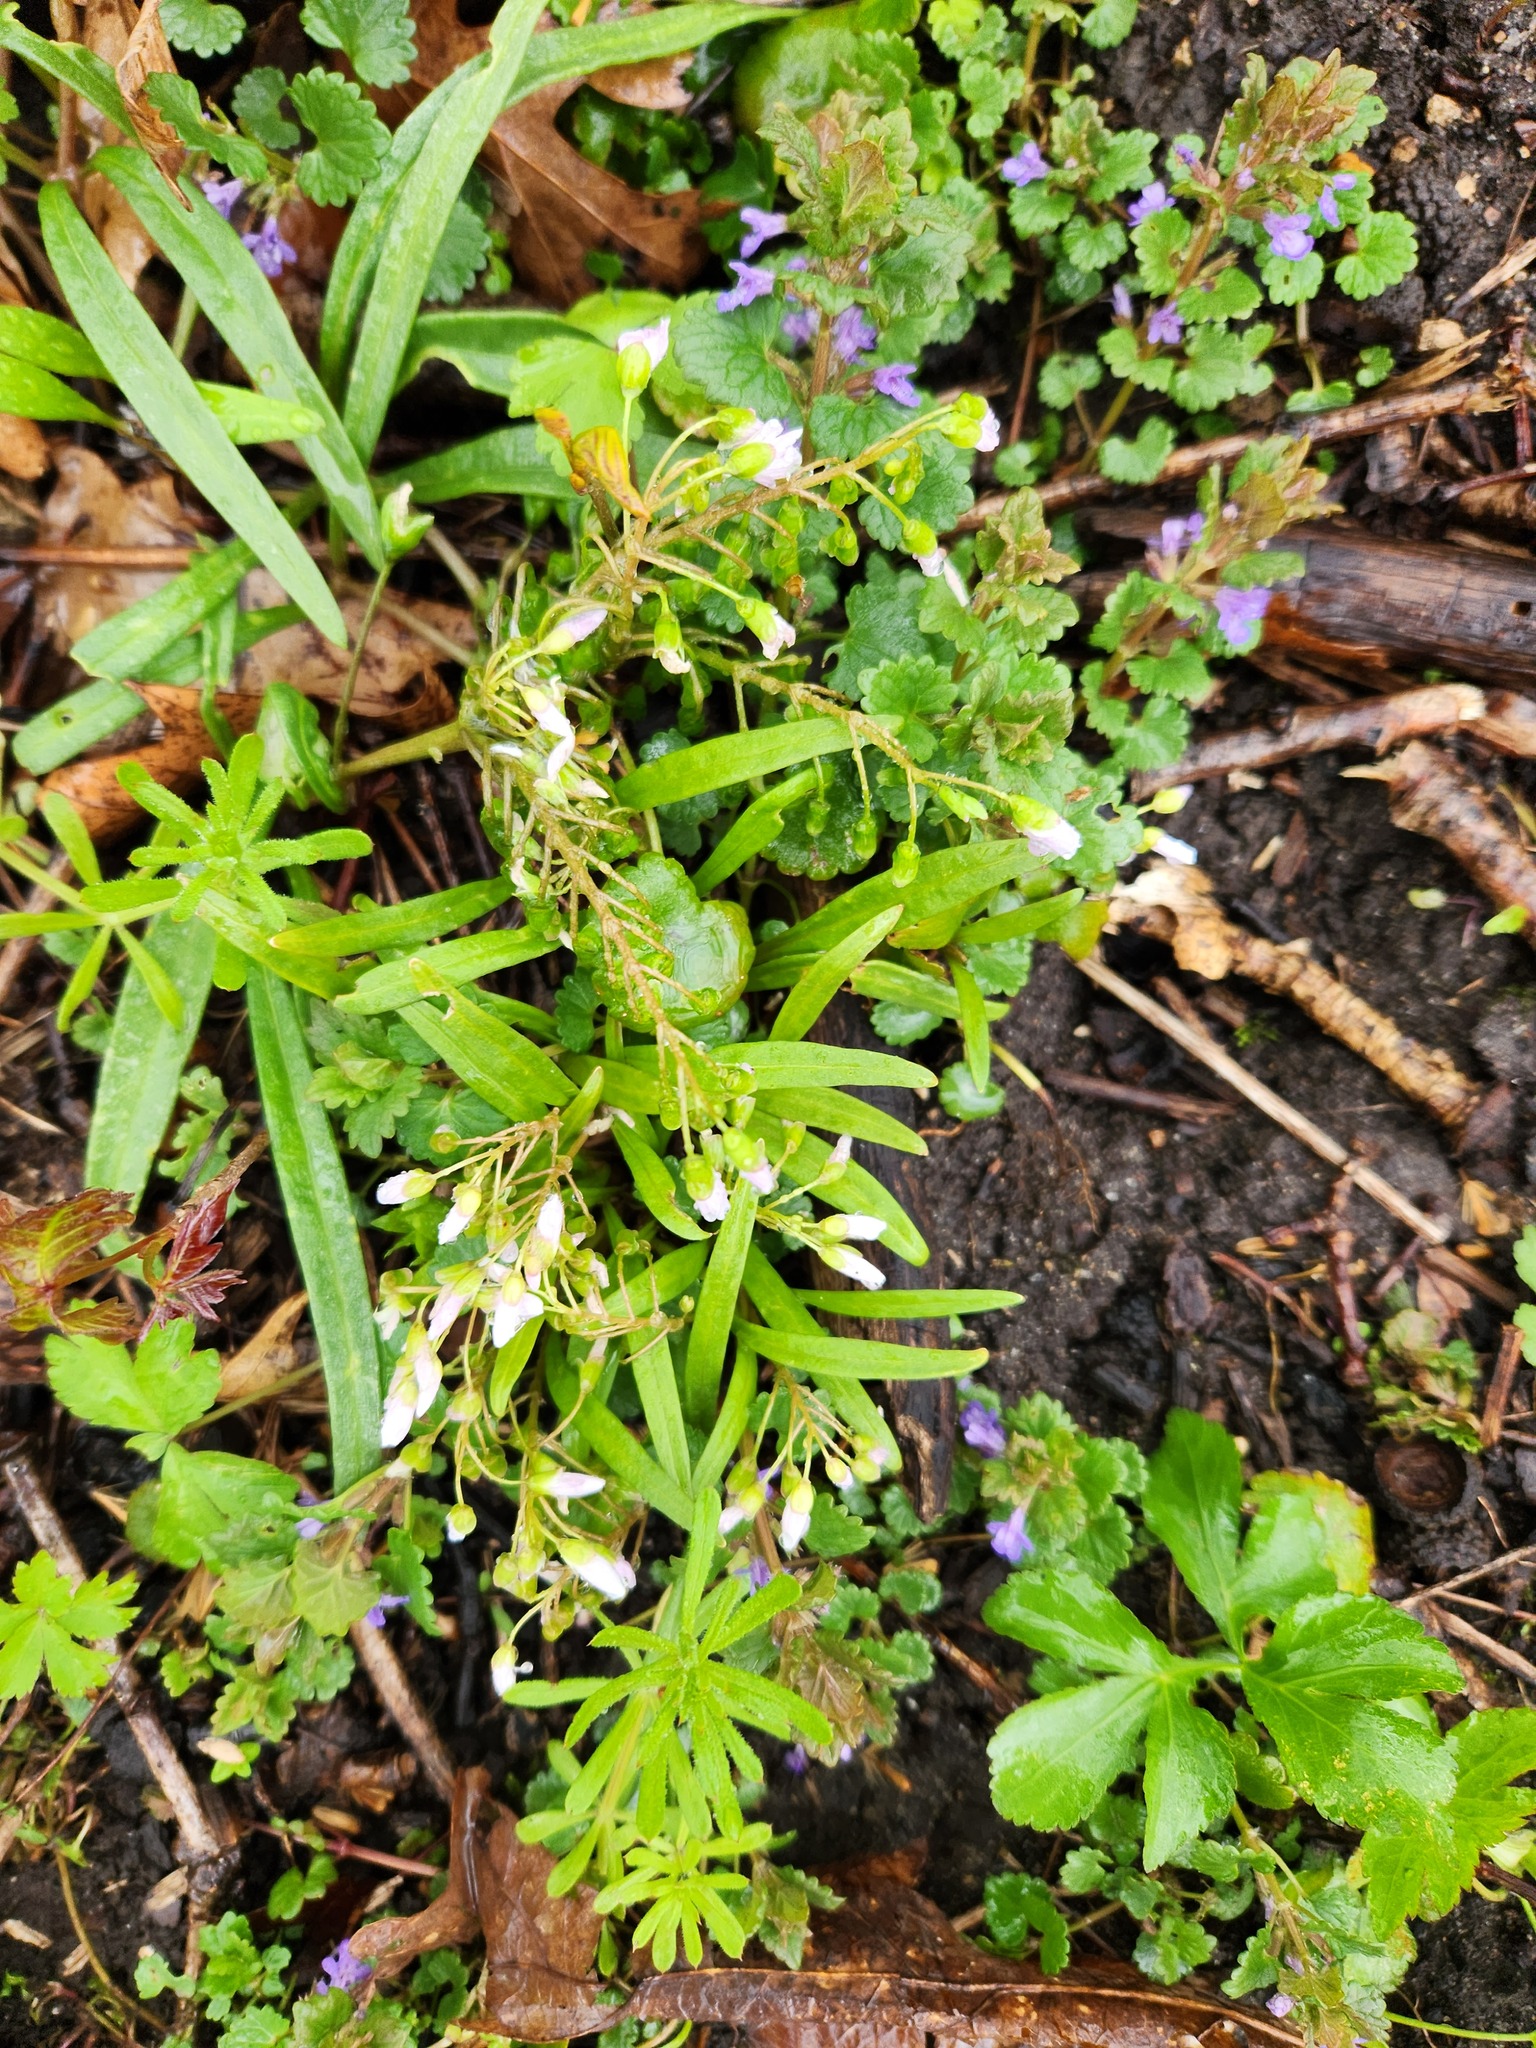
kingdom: Plantae
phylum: Tracheophyta
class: Magnoliopsida
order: Caryophyllales
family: Montiaceae
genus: Claytonia
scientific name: Claytonia virginica
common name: Virginia springbeauty
